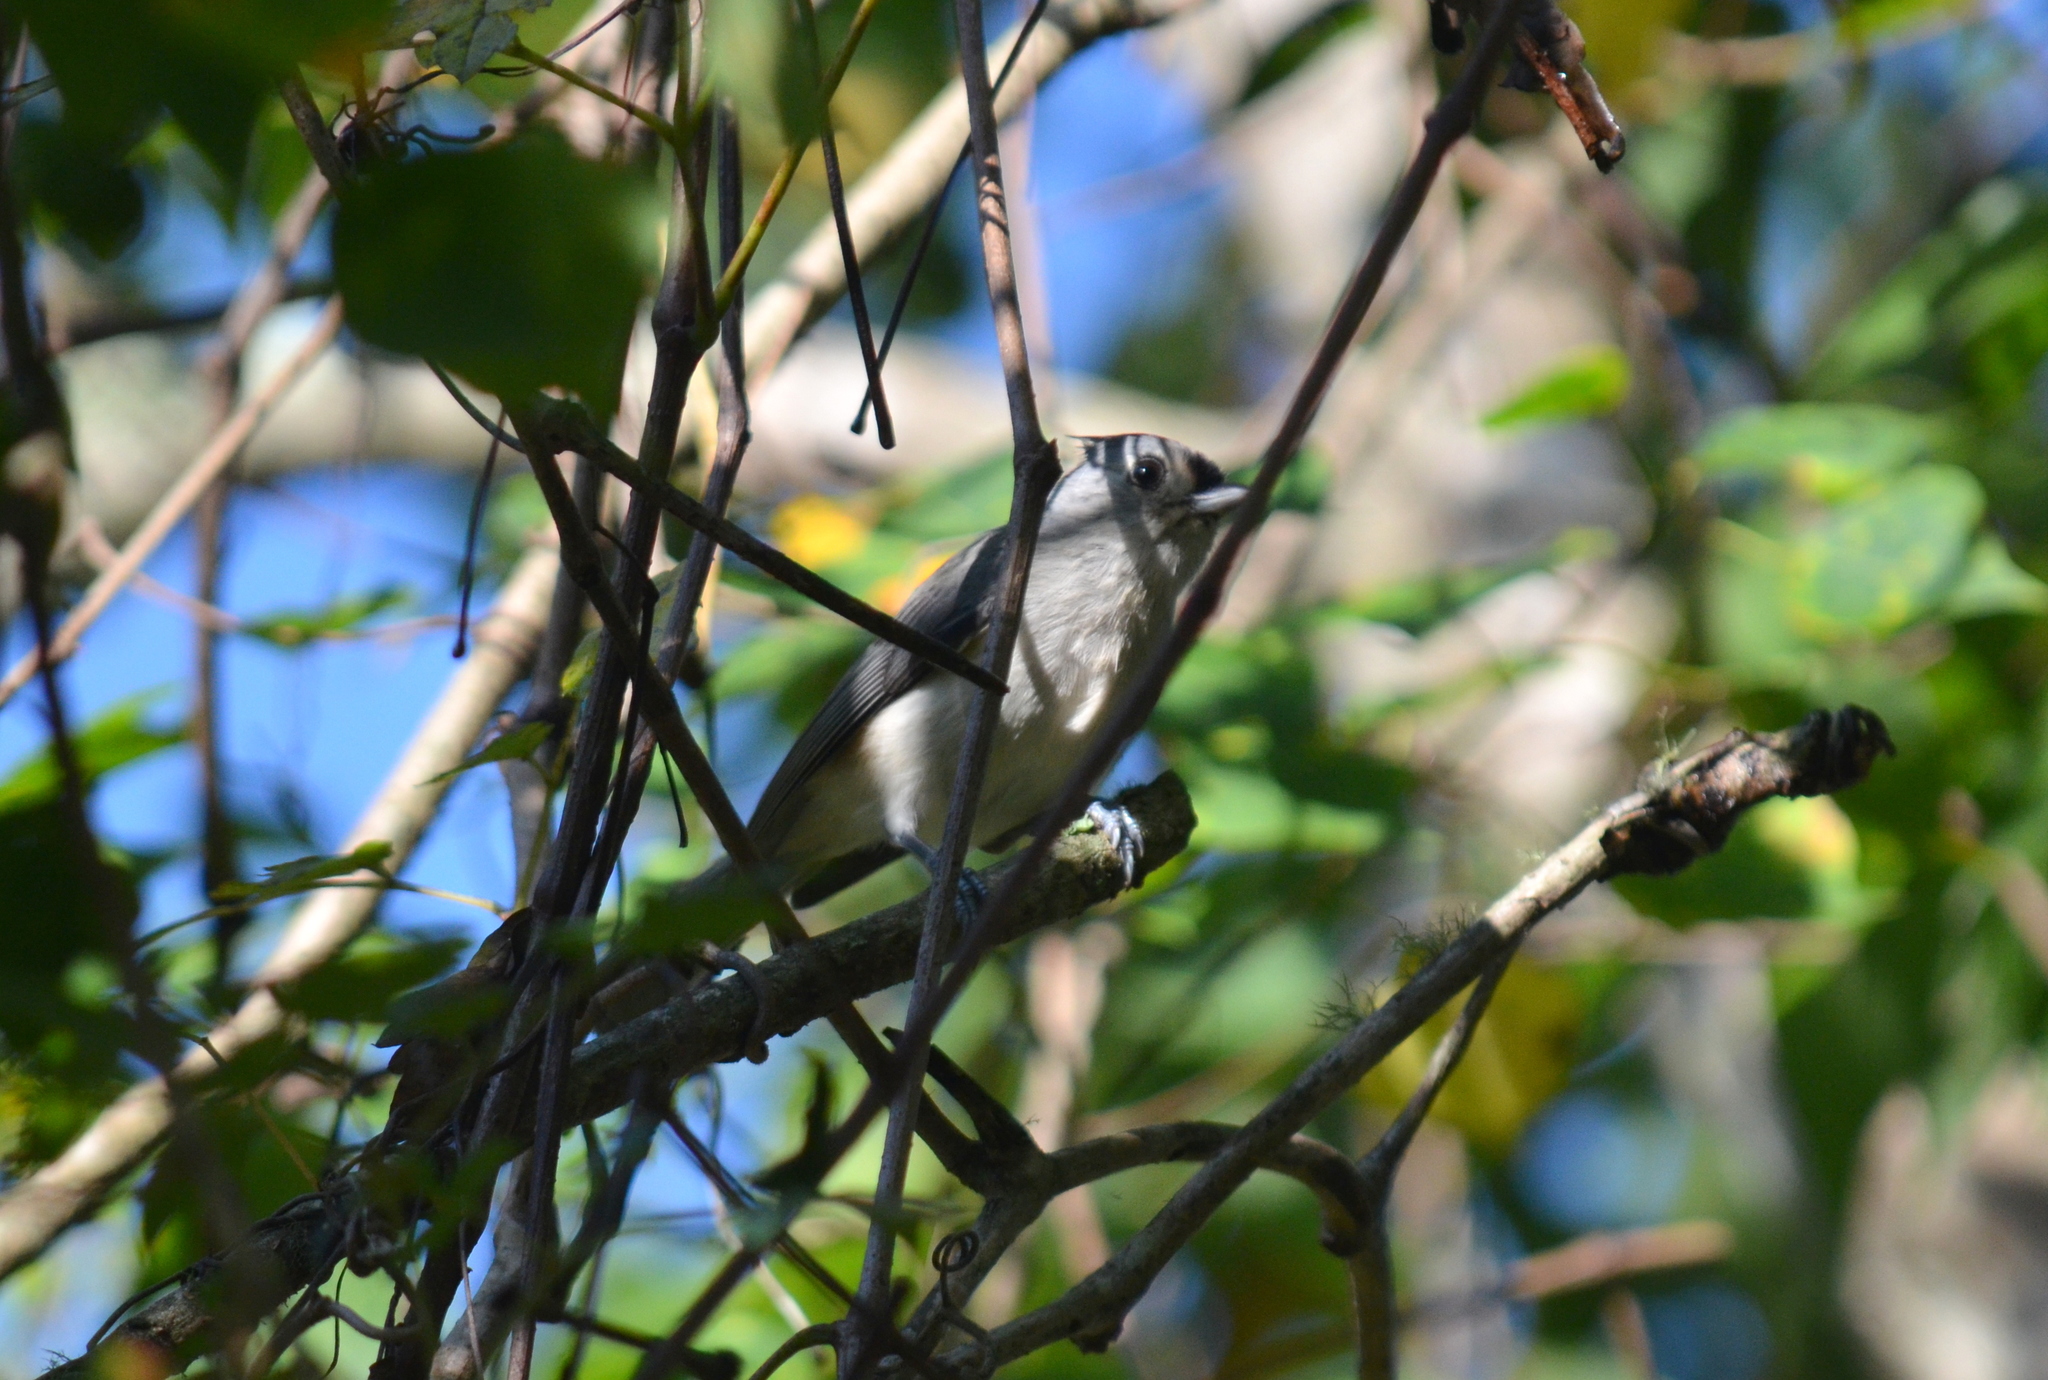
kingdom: Animalia
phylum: Chordata
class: Aves
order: Passeriformes
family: Paridae
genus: Baeolophus
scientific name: Baeolophus bicolor
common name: Tufted titmouse
